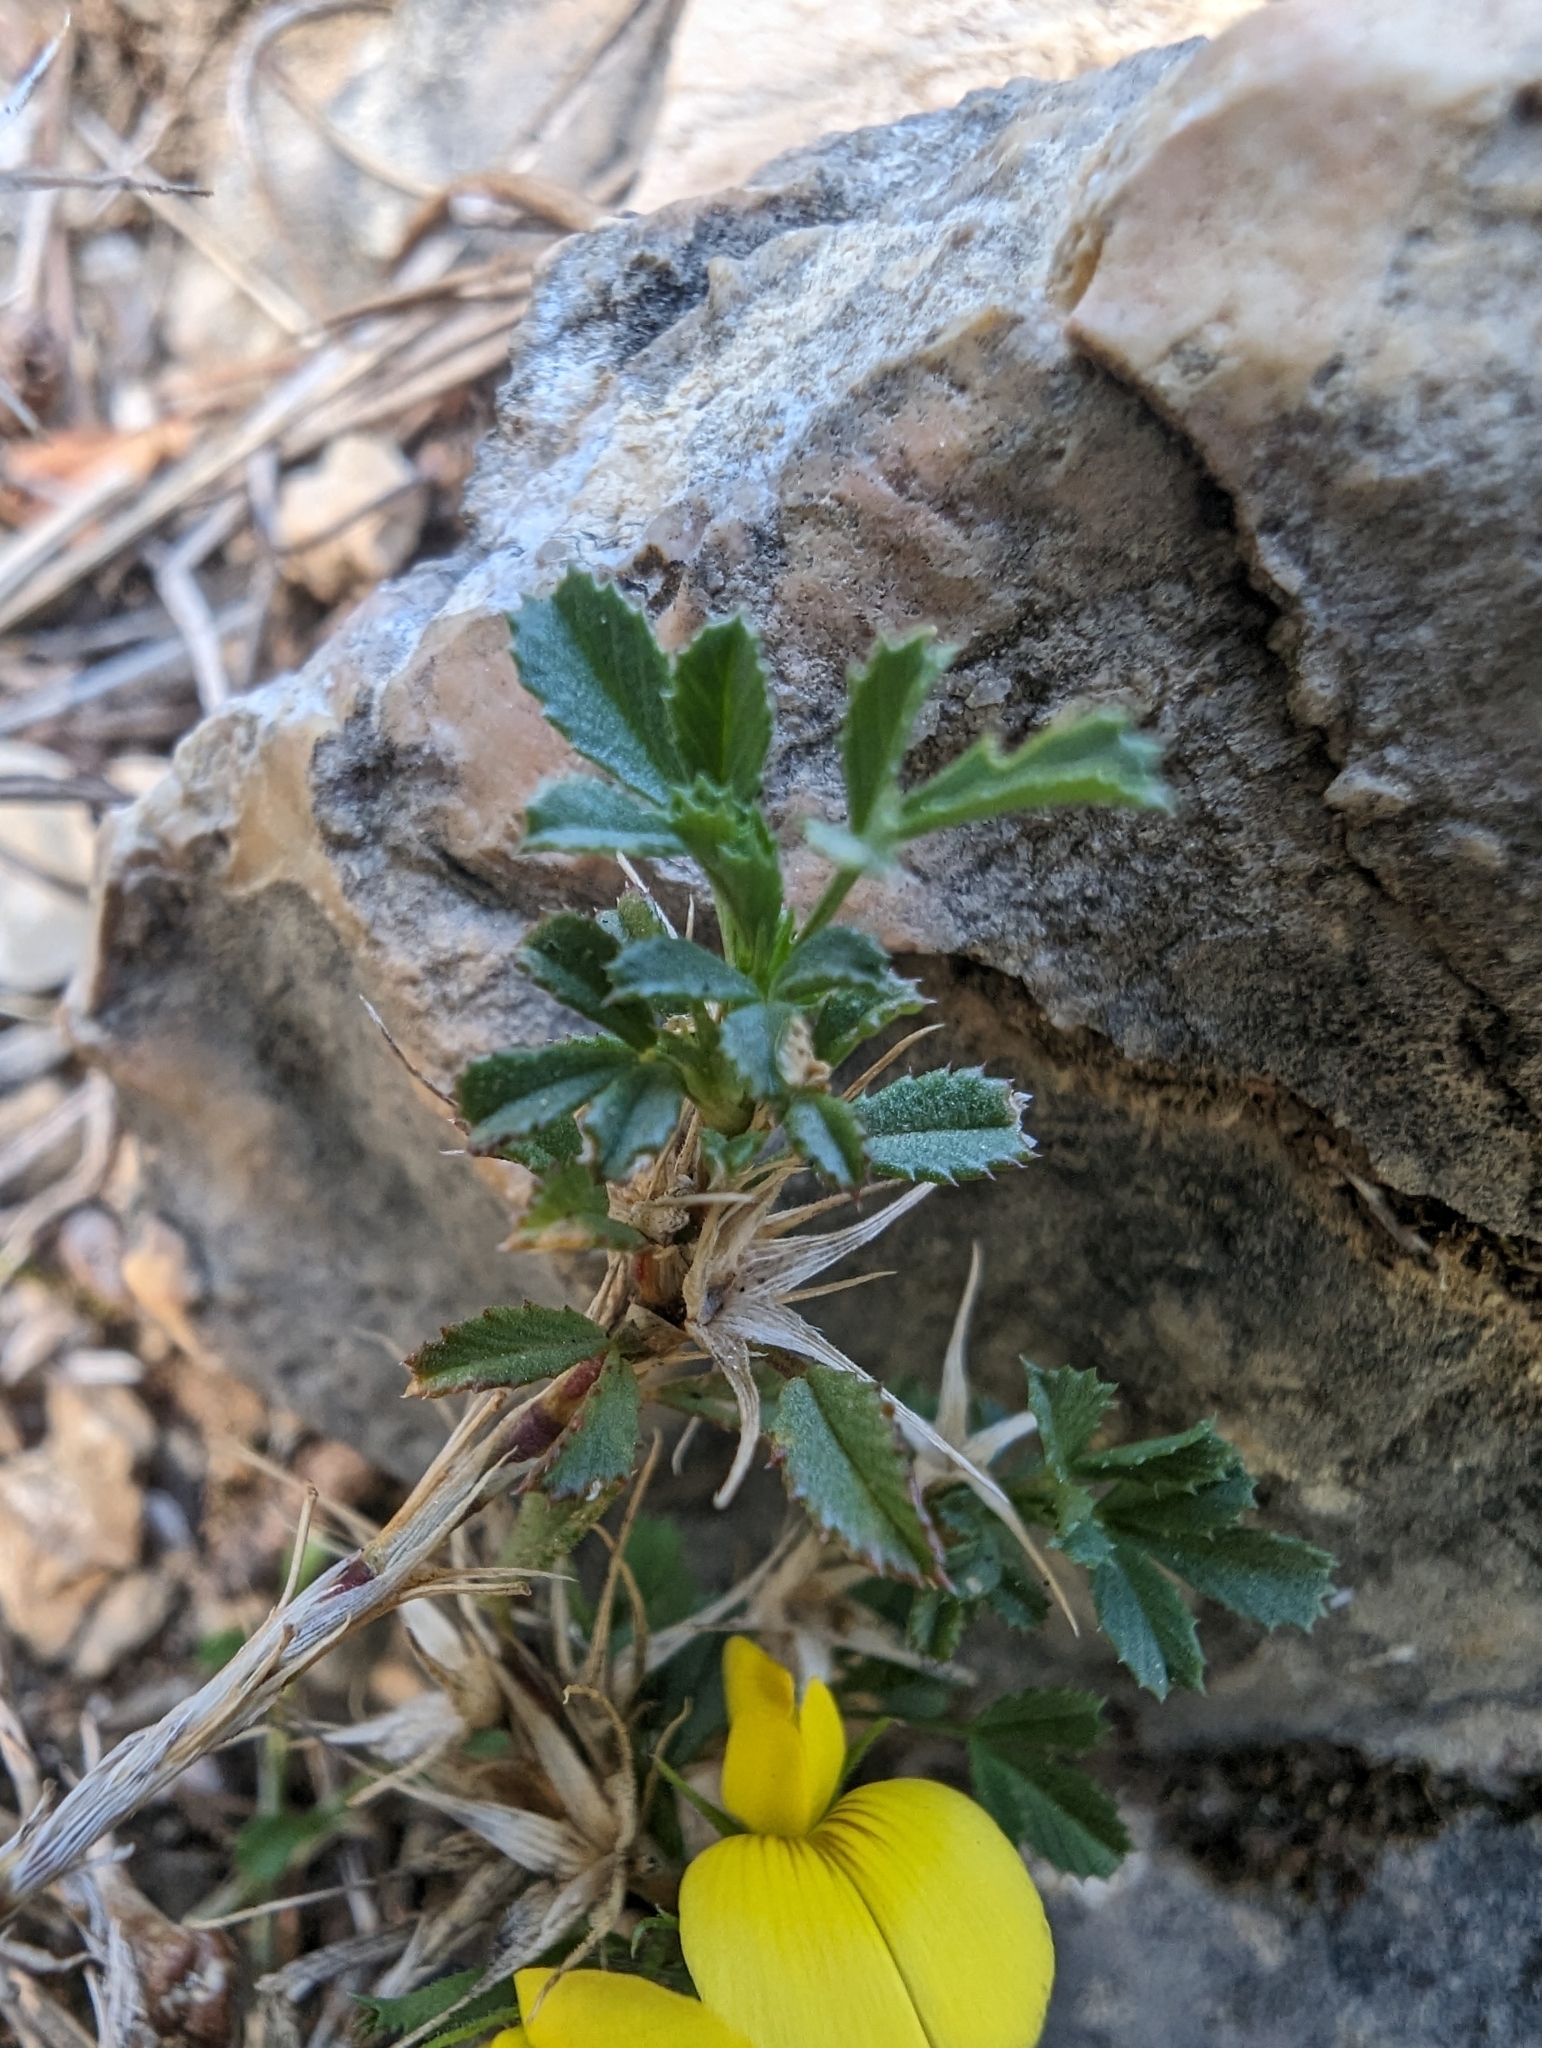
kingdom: Plantae
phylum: Tracheophyta
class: Magnoliopsida
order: Fabales
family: Fabaceae
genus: Ononis
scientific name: Ononis minutissima
